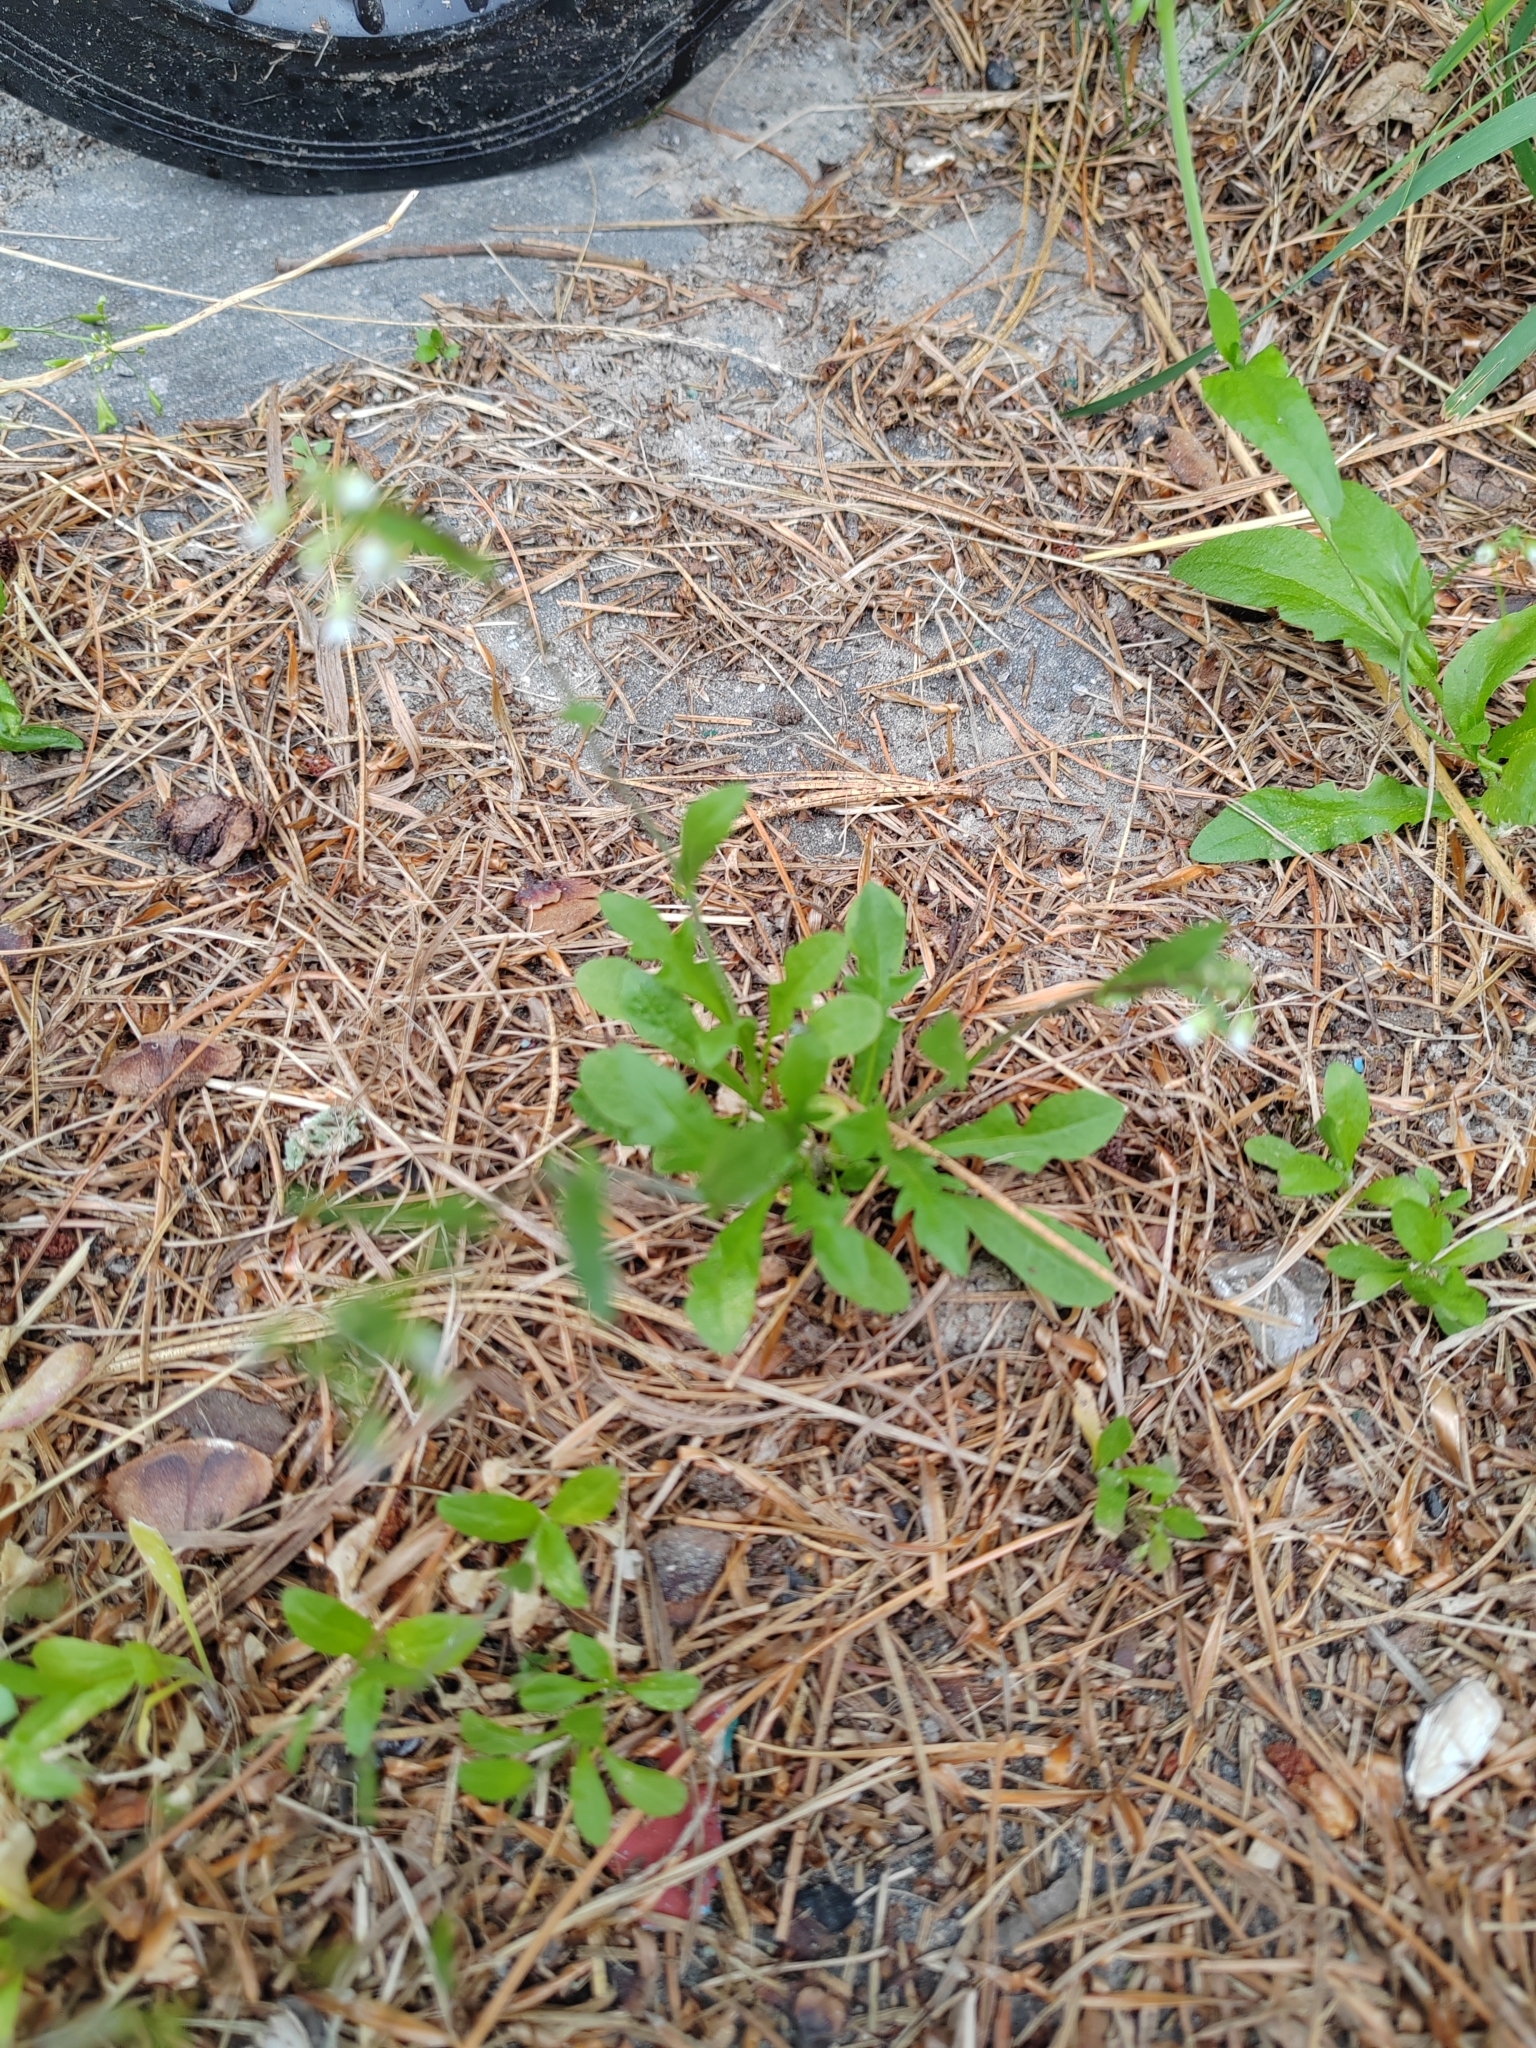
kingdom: Plantae
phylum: Tracheophyta
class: Magnoliopsida
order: Solanales
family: Solanaceae
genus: Solanum
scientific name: Solanum dulcamara
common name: Climbing nightshade
